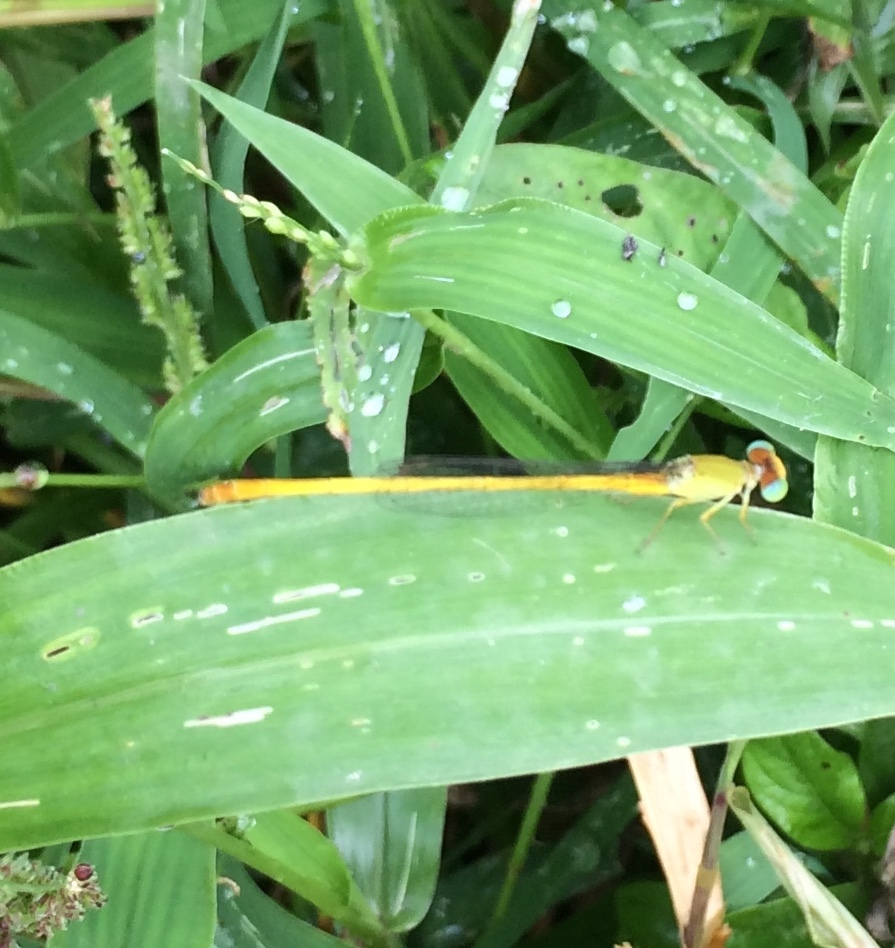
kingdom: Animalia
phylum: Arthropoda
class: Insecta
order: Odonata
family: Coenagrionidae
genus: Ceriagrion
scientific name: Ceriagrion coromandelianum
